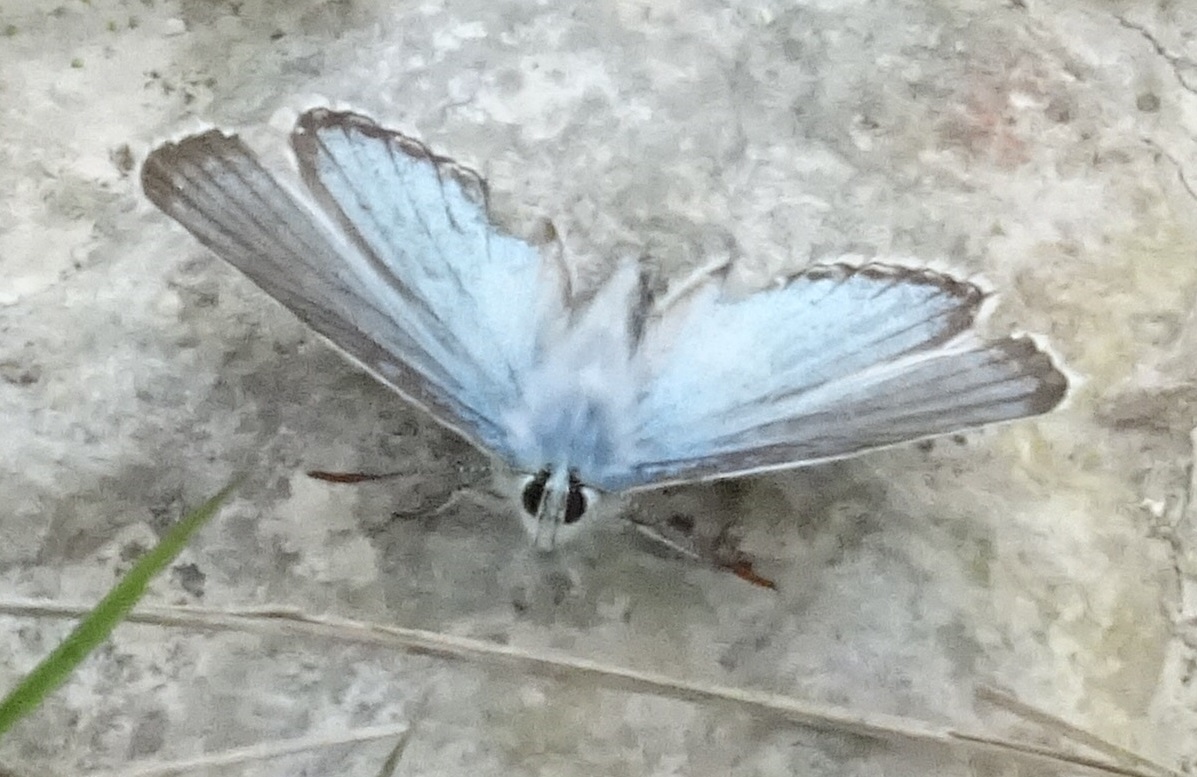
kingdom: Animalia
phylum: Arthropoda
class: Insecta
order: Lepidoptera
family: Lycaenidae
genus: Lysandra
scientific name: Lysandra coridon
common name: Chalkhill blue
